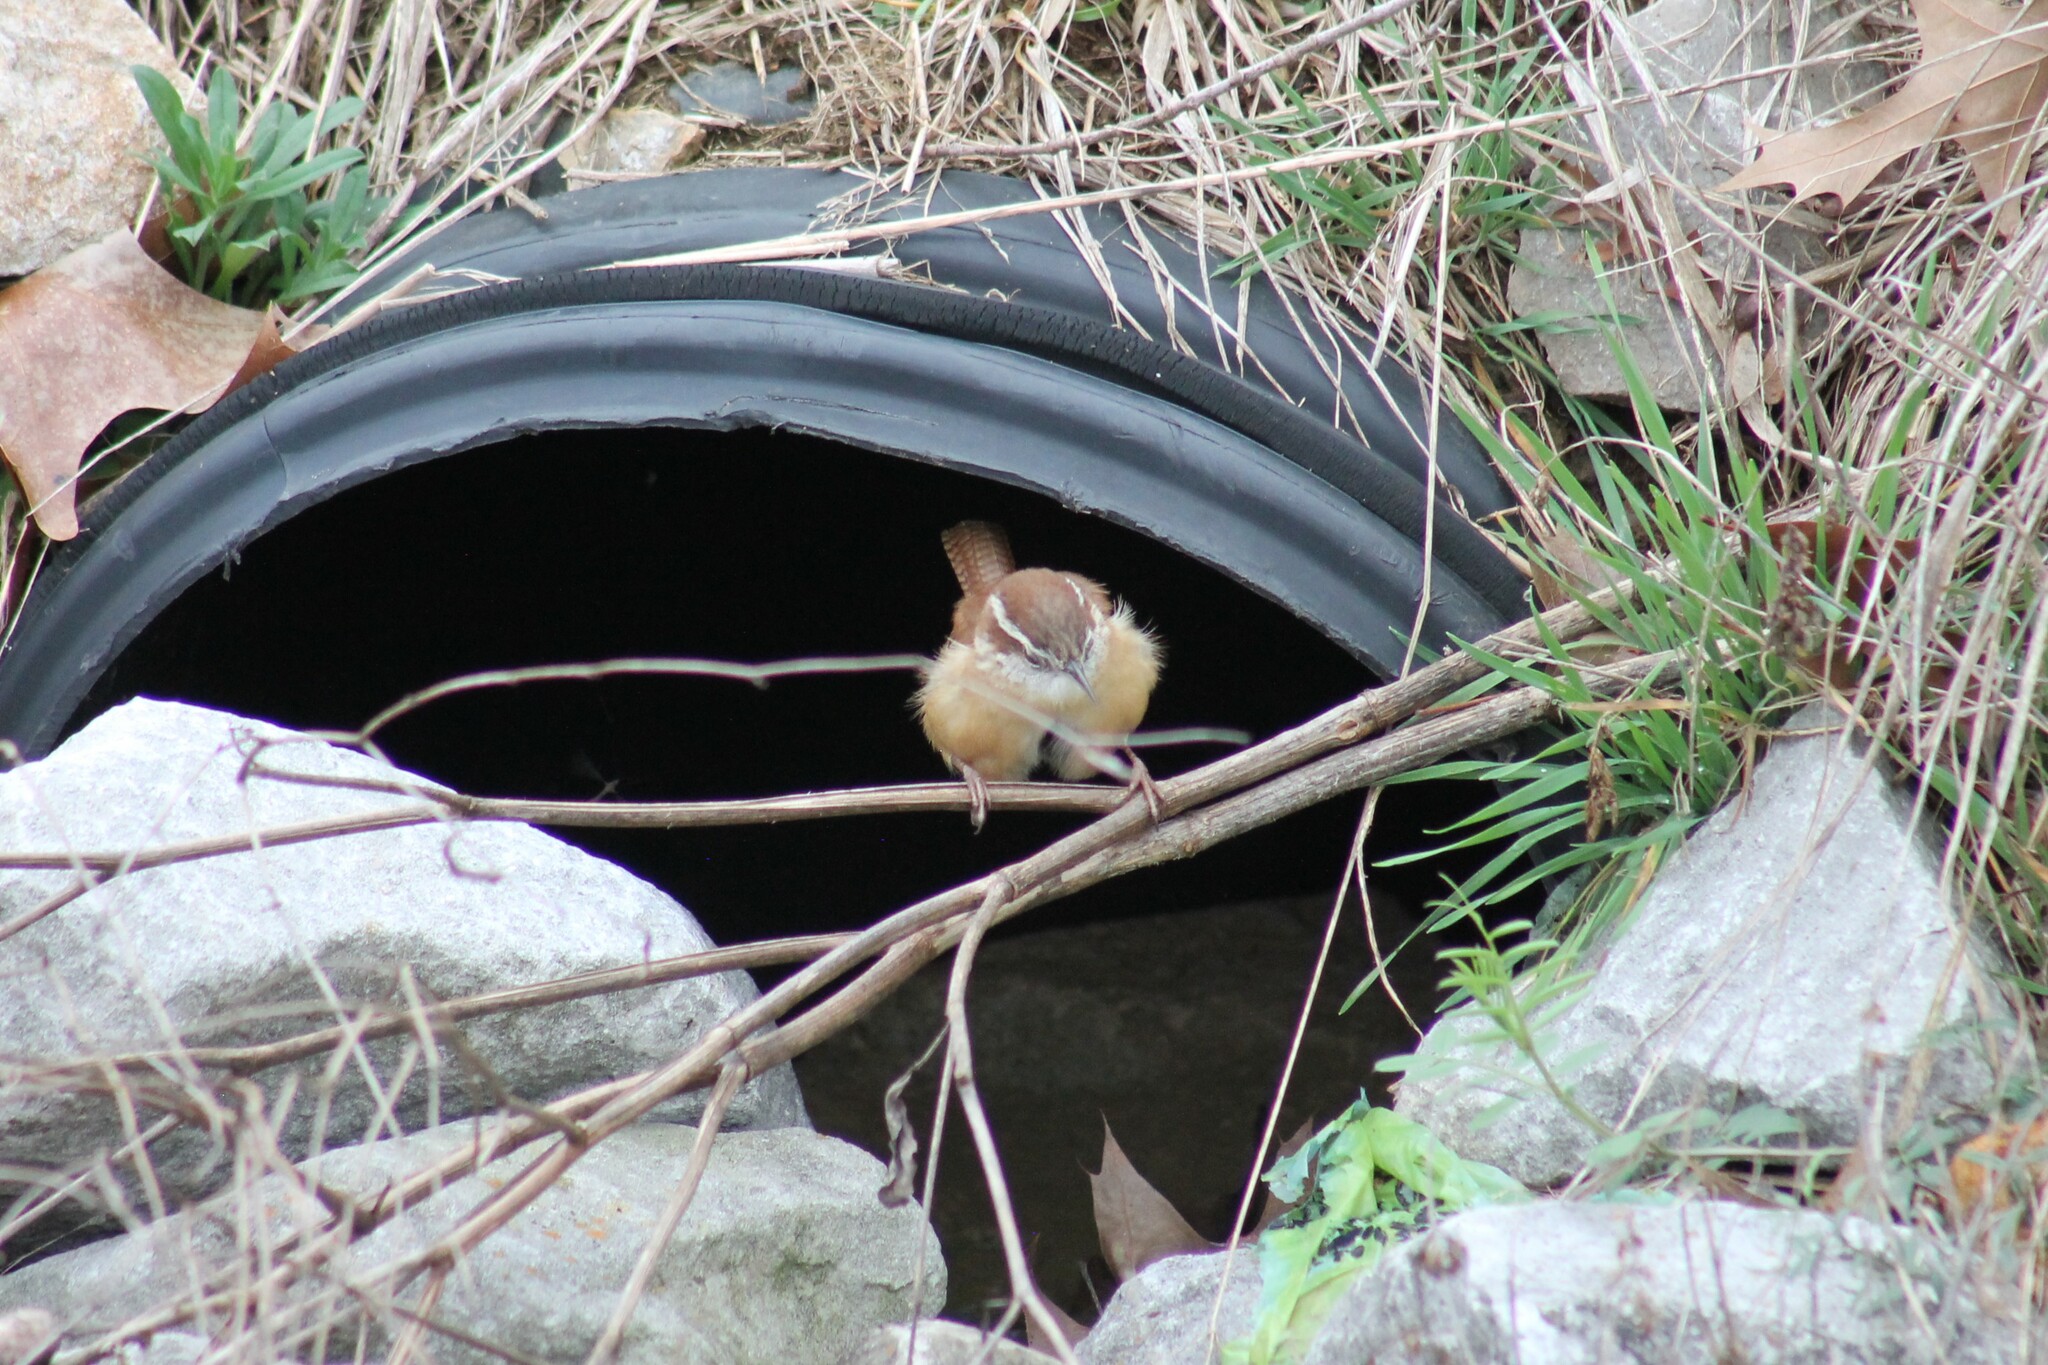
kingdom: Animalia
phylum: Chordata
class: Aves
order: Passeriformes
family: Troglodytidae
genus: Thryothorus
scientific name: Thryothorus ludovicianus
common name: Carolina wren
